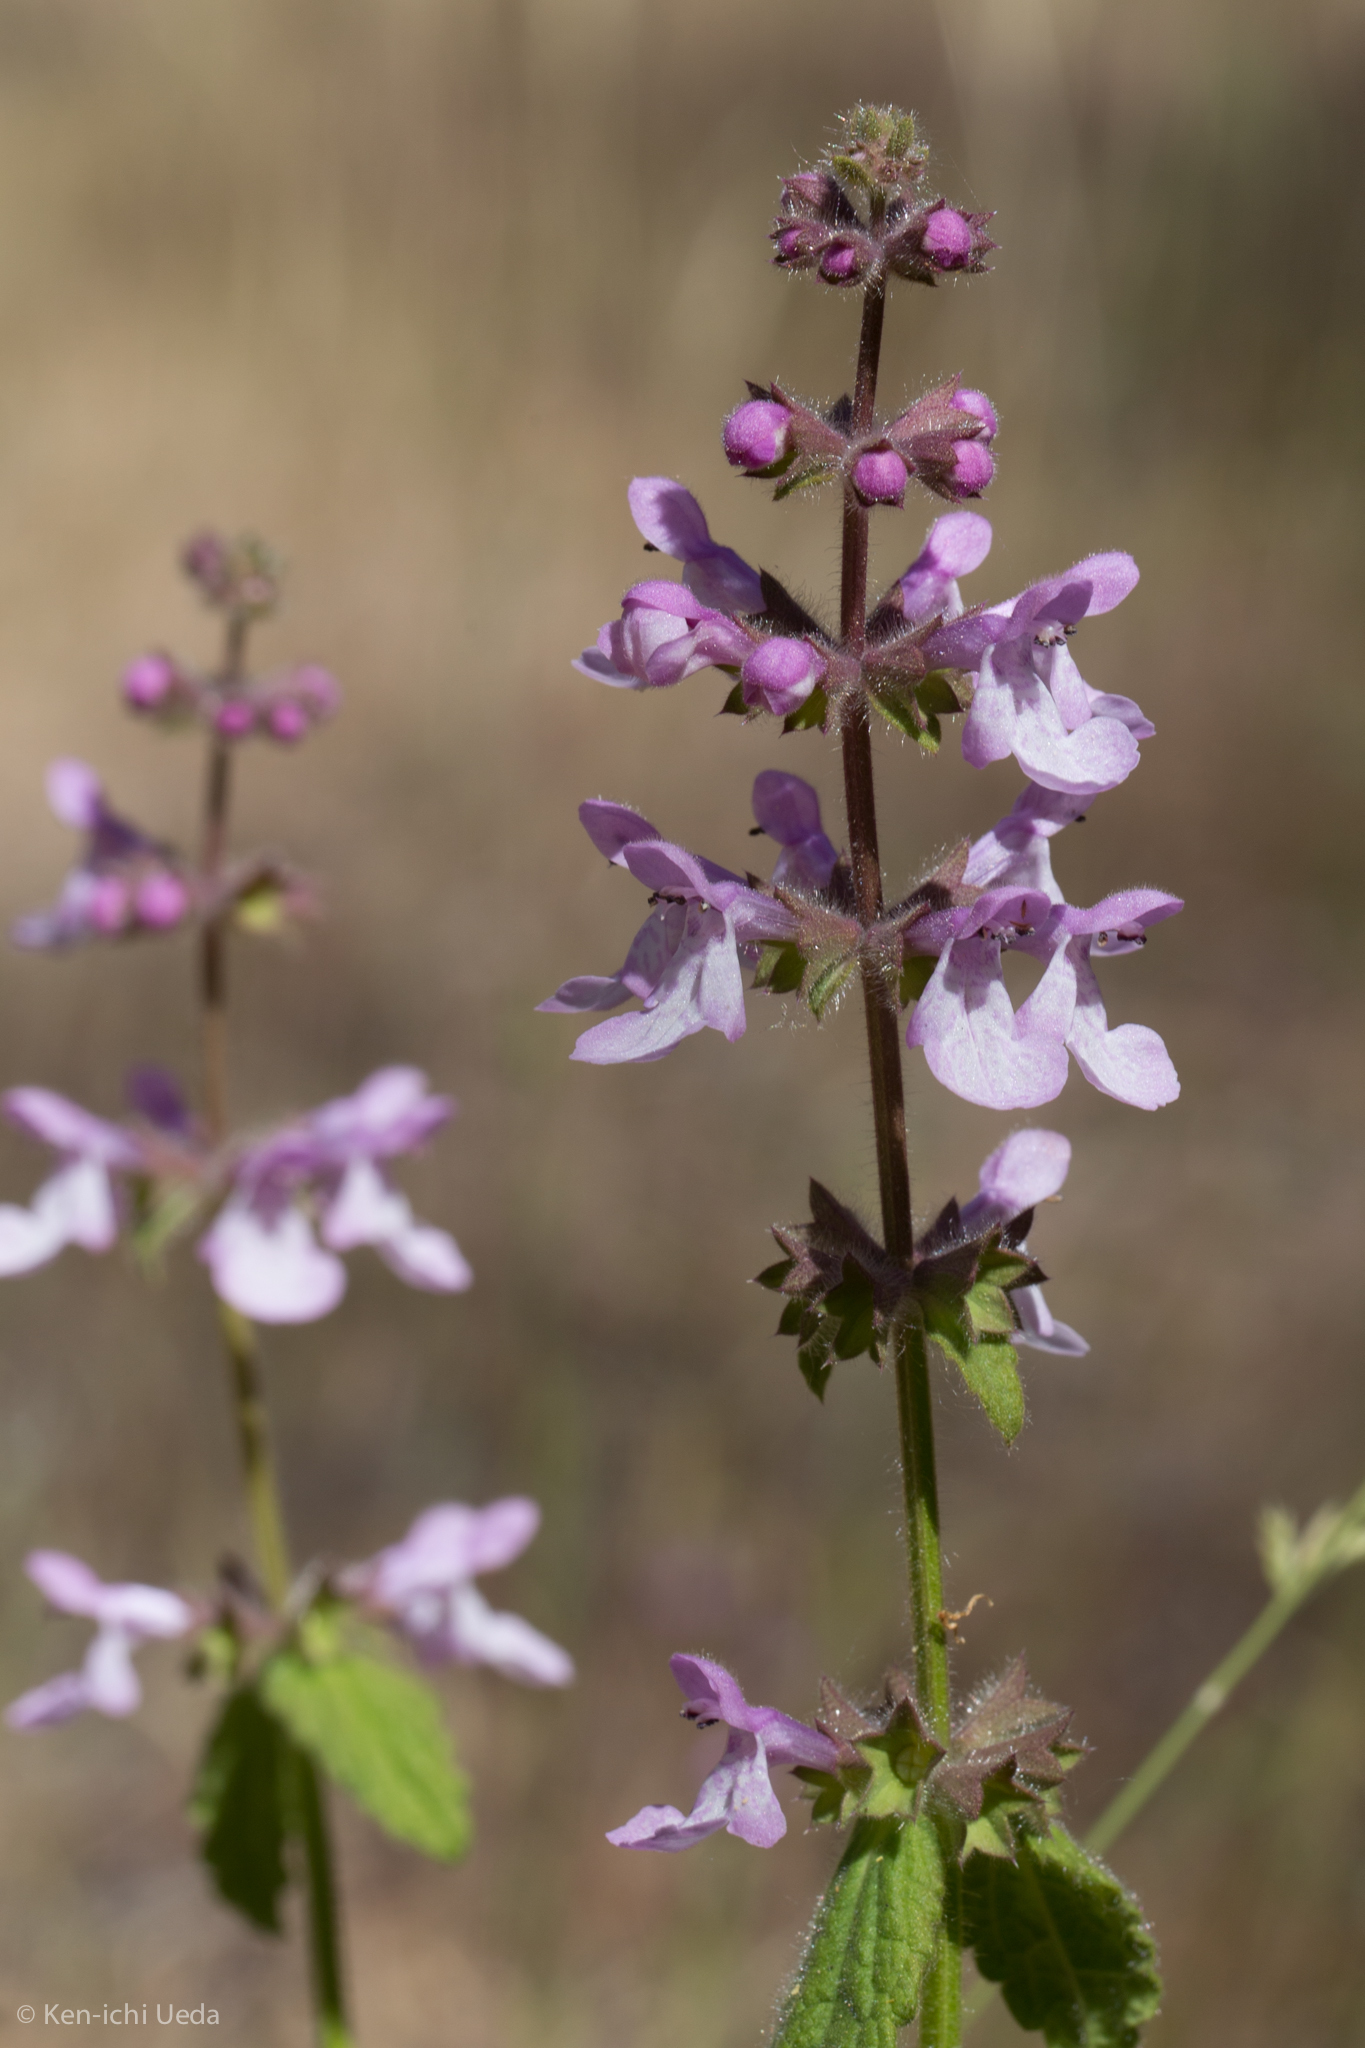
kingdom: Plantae
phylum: Tracheophyta
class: Magnoliopsida
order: Lamiales
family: Lamiaceae
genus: Stachys
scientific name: Stachys bullata
